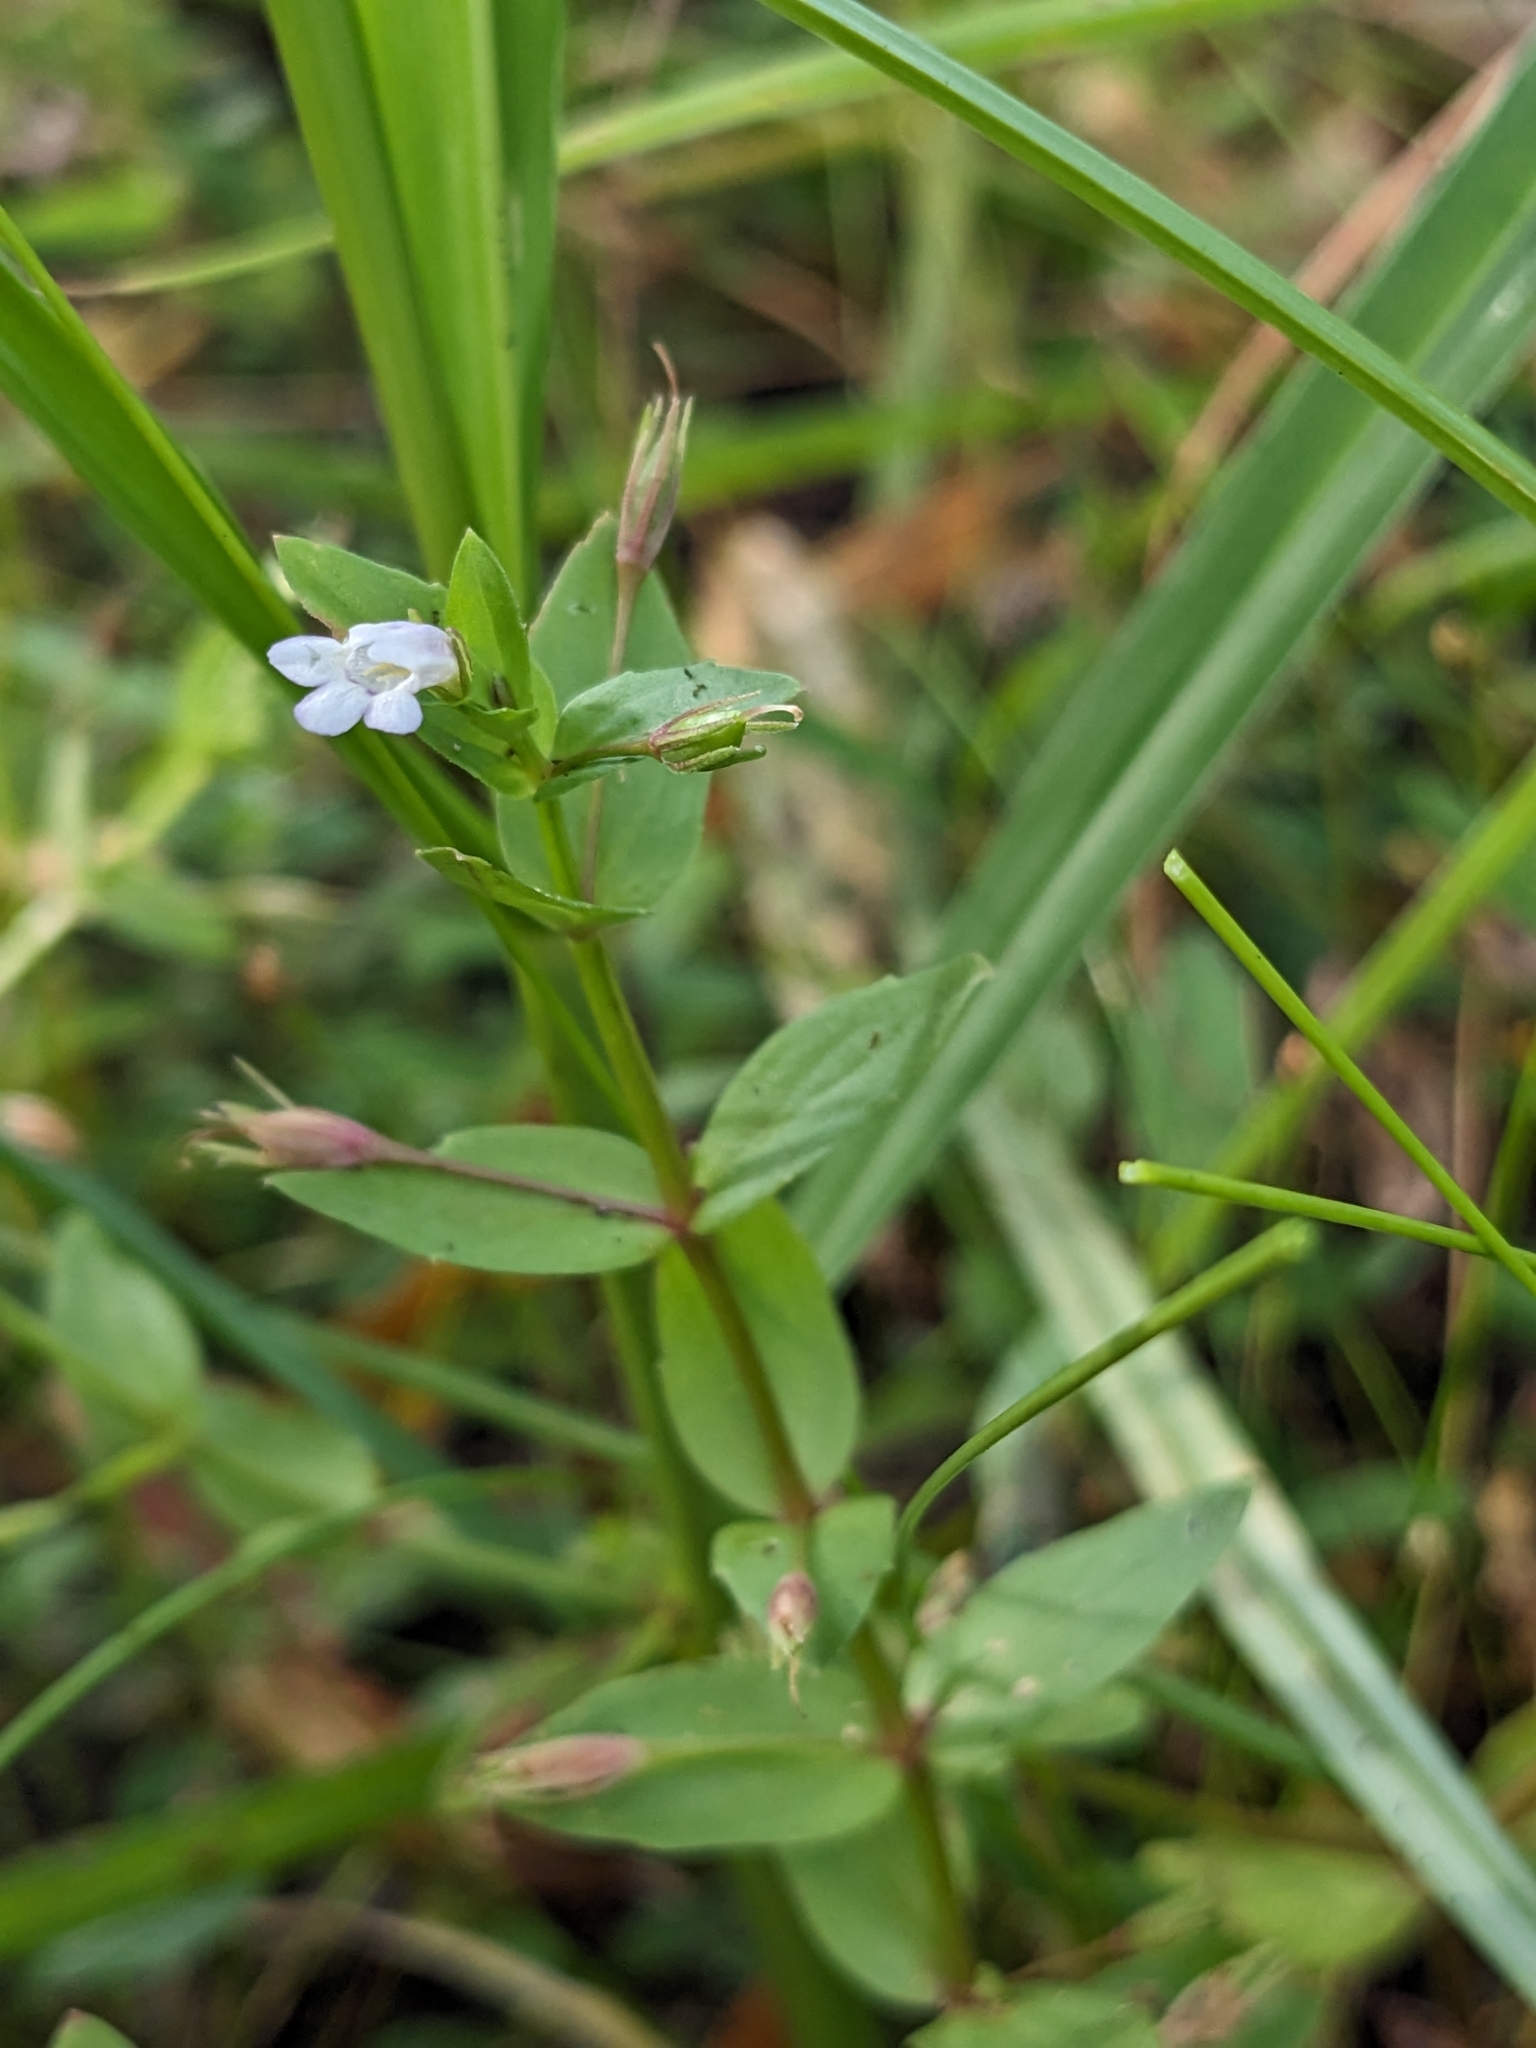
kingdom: Plantae
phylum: Tracheophyta
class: Magnoliopsida
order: Lamiales
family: Linderniaceae
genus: Lindernia
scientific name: Lindernia dubia
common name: Annual false pimpernel
